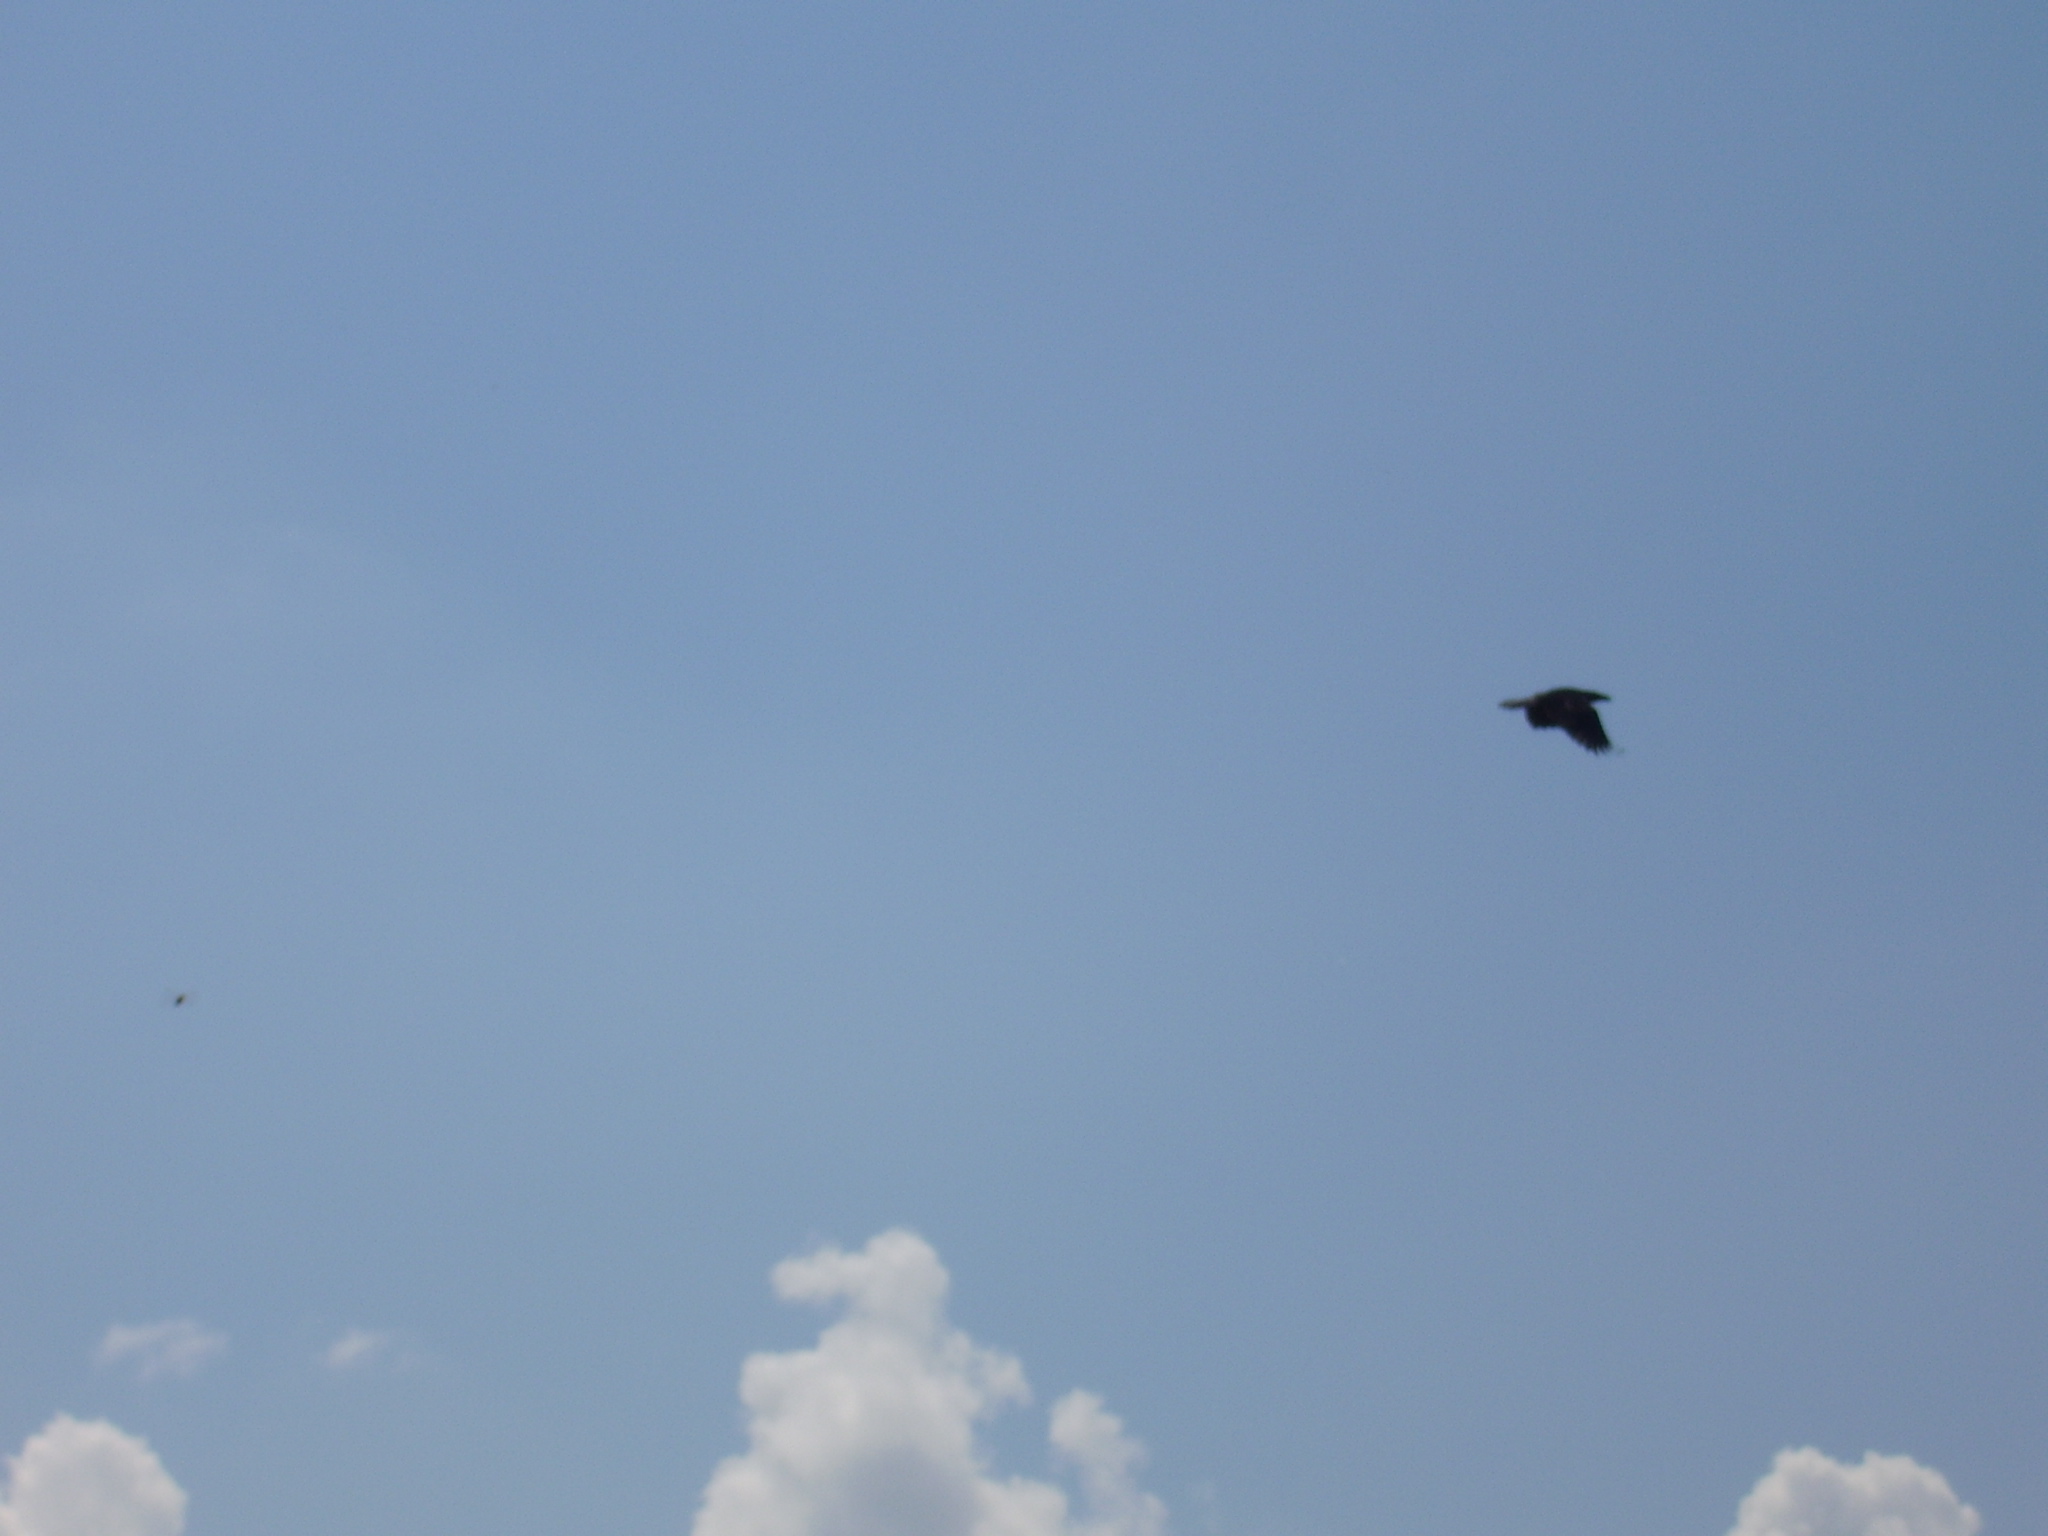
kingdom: Animalia
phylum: Chordata
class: Aves
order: Passeriformes
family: Corvidae
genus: Corvus
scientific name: Corvus corax
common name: Common raven
